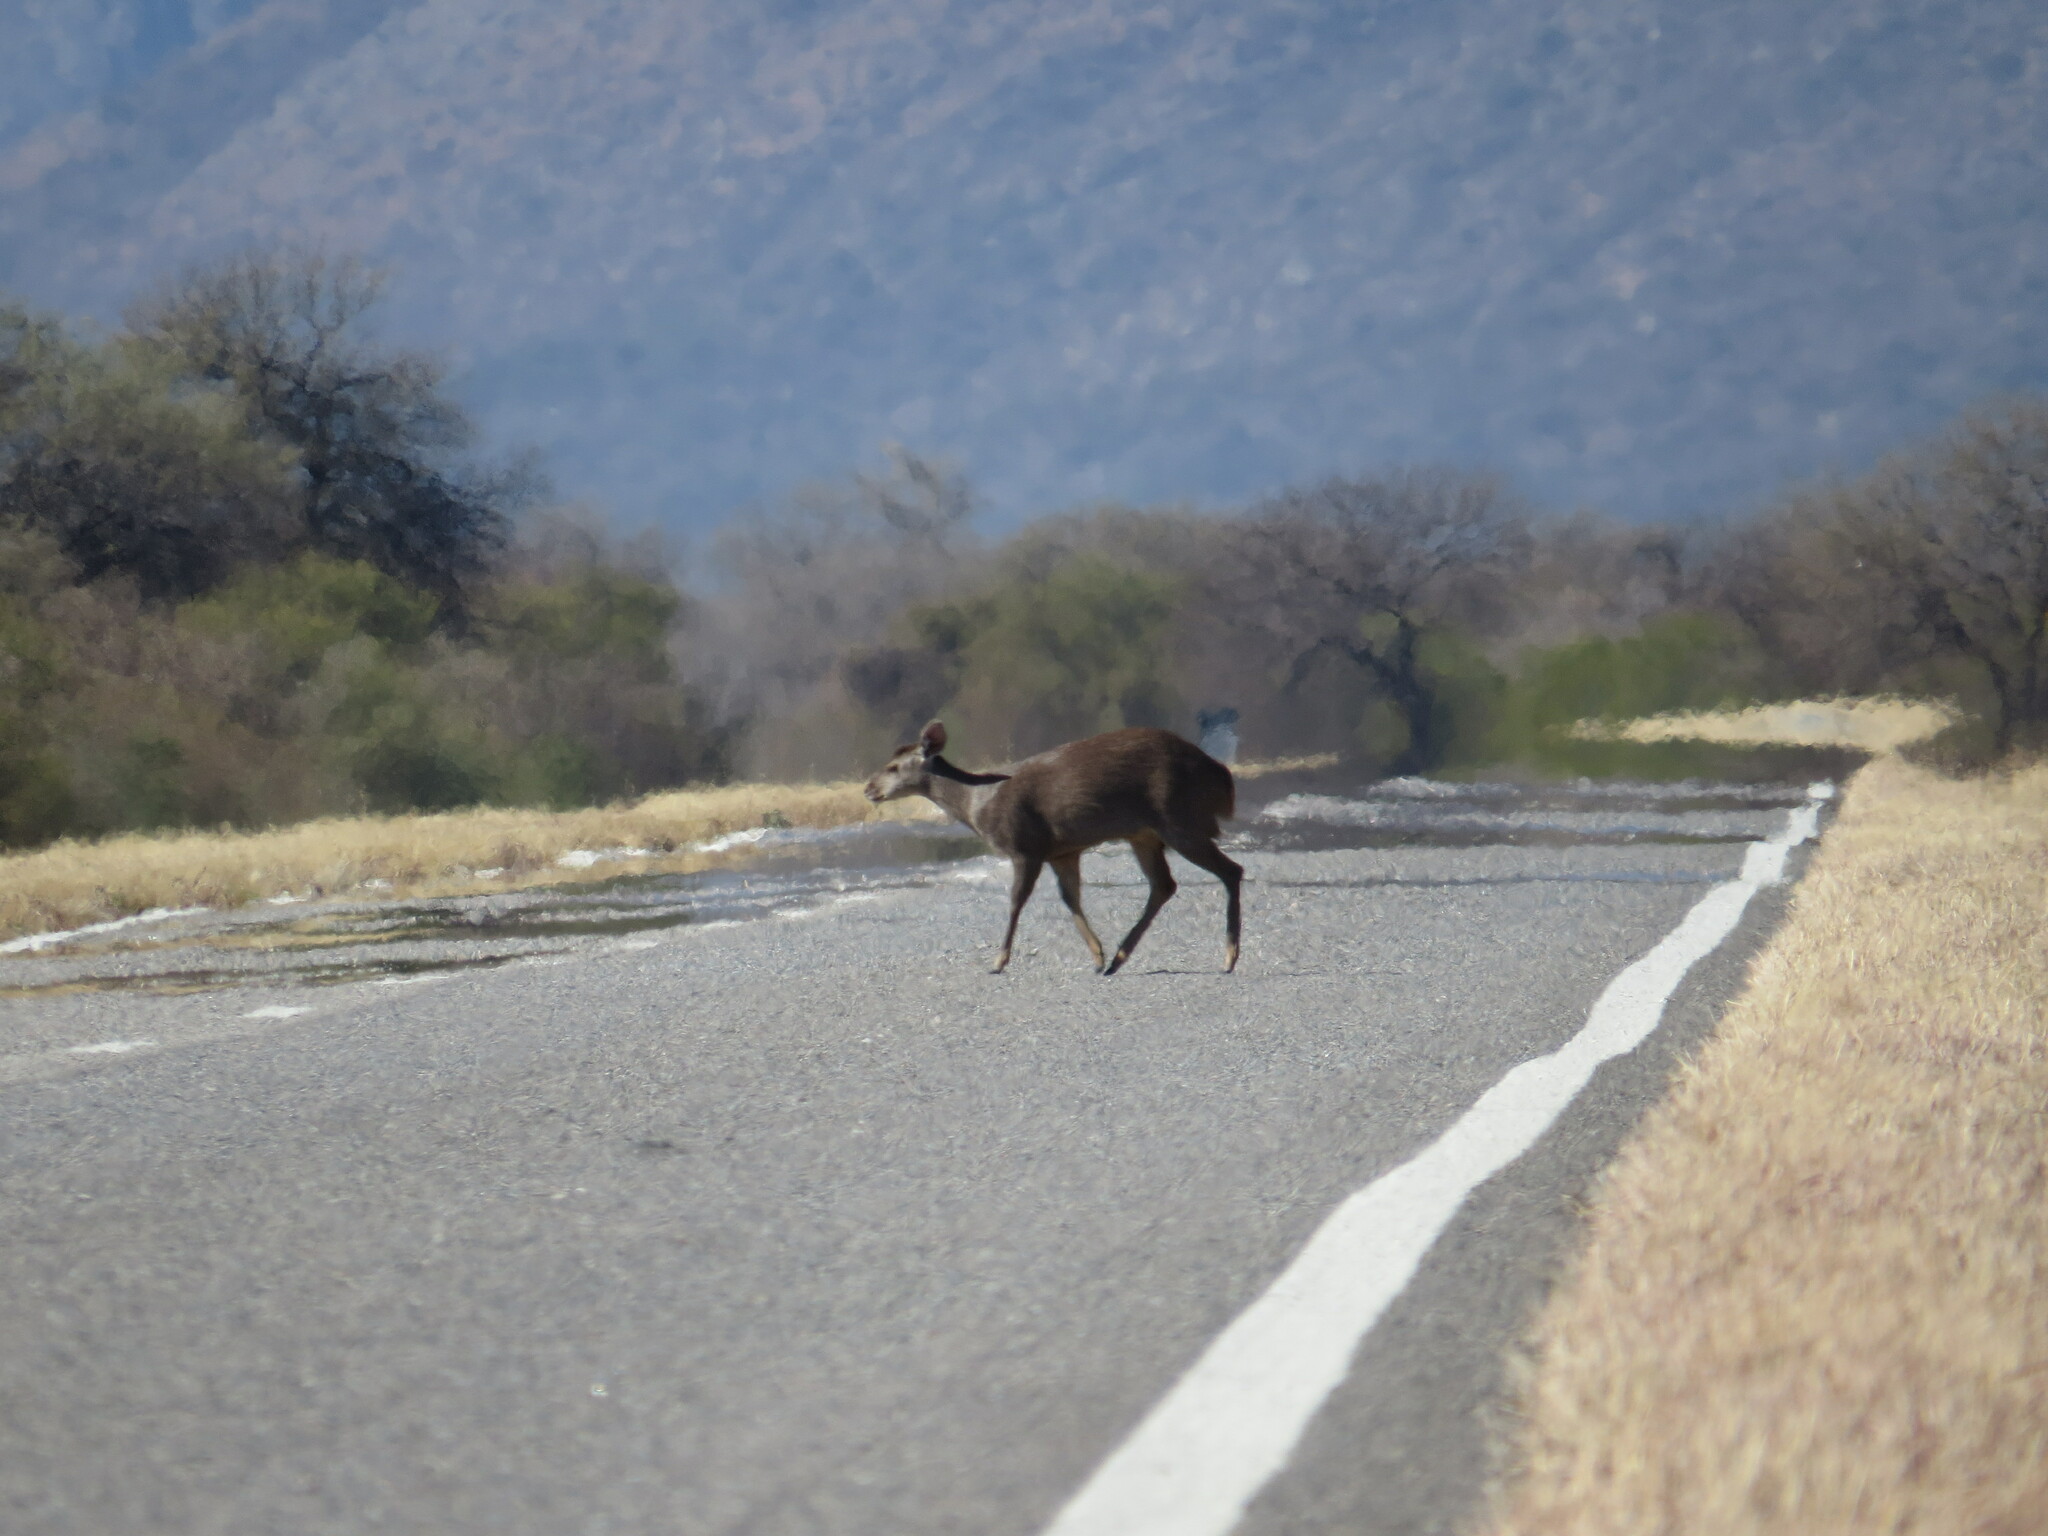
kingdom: Animalia
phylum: Chordata
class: Mammalia
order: Artiodactyla
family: Cervidae
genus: Mazama
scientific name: Mazama gouazoubira
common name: Gray brocket
